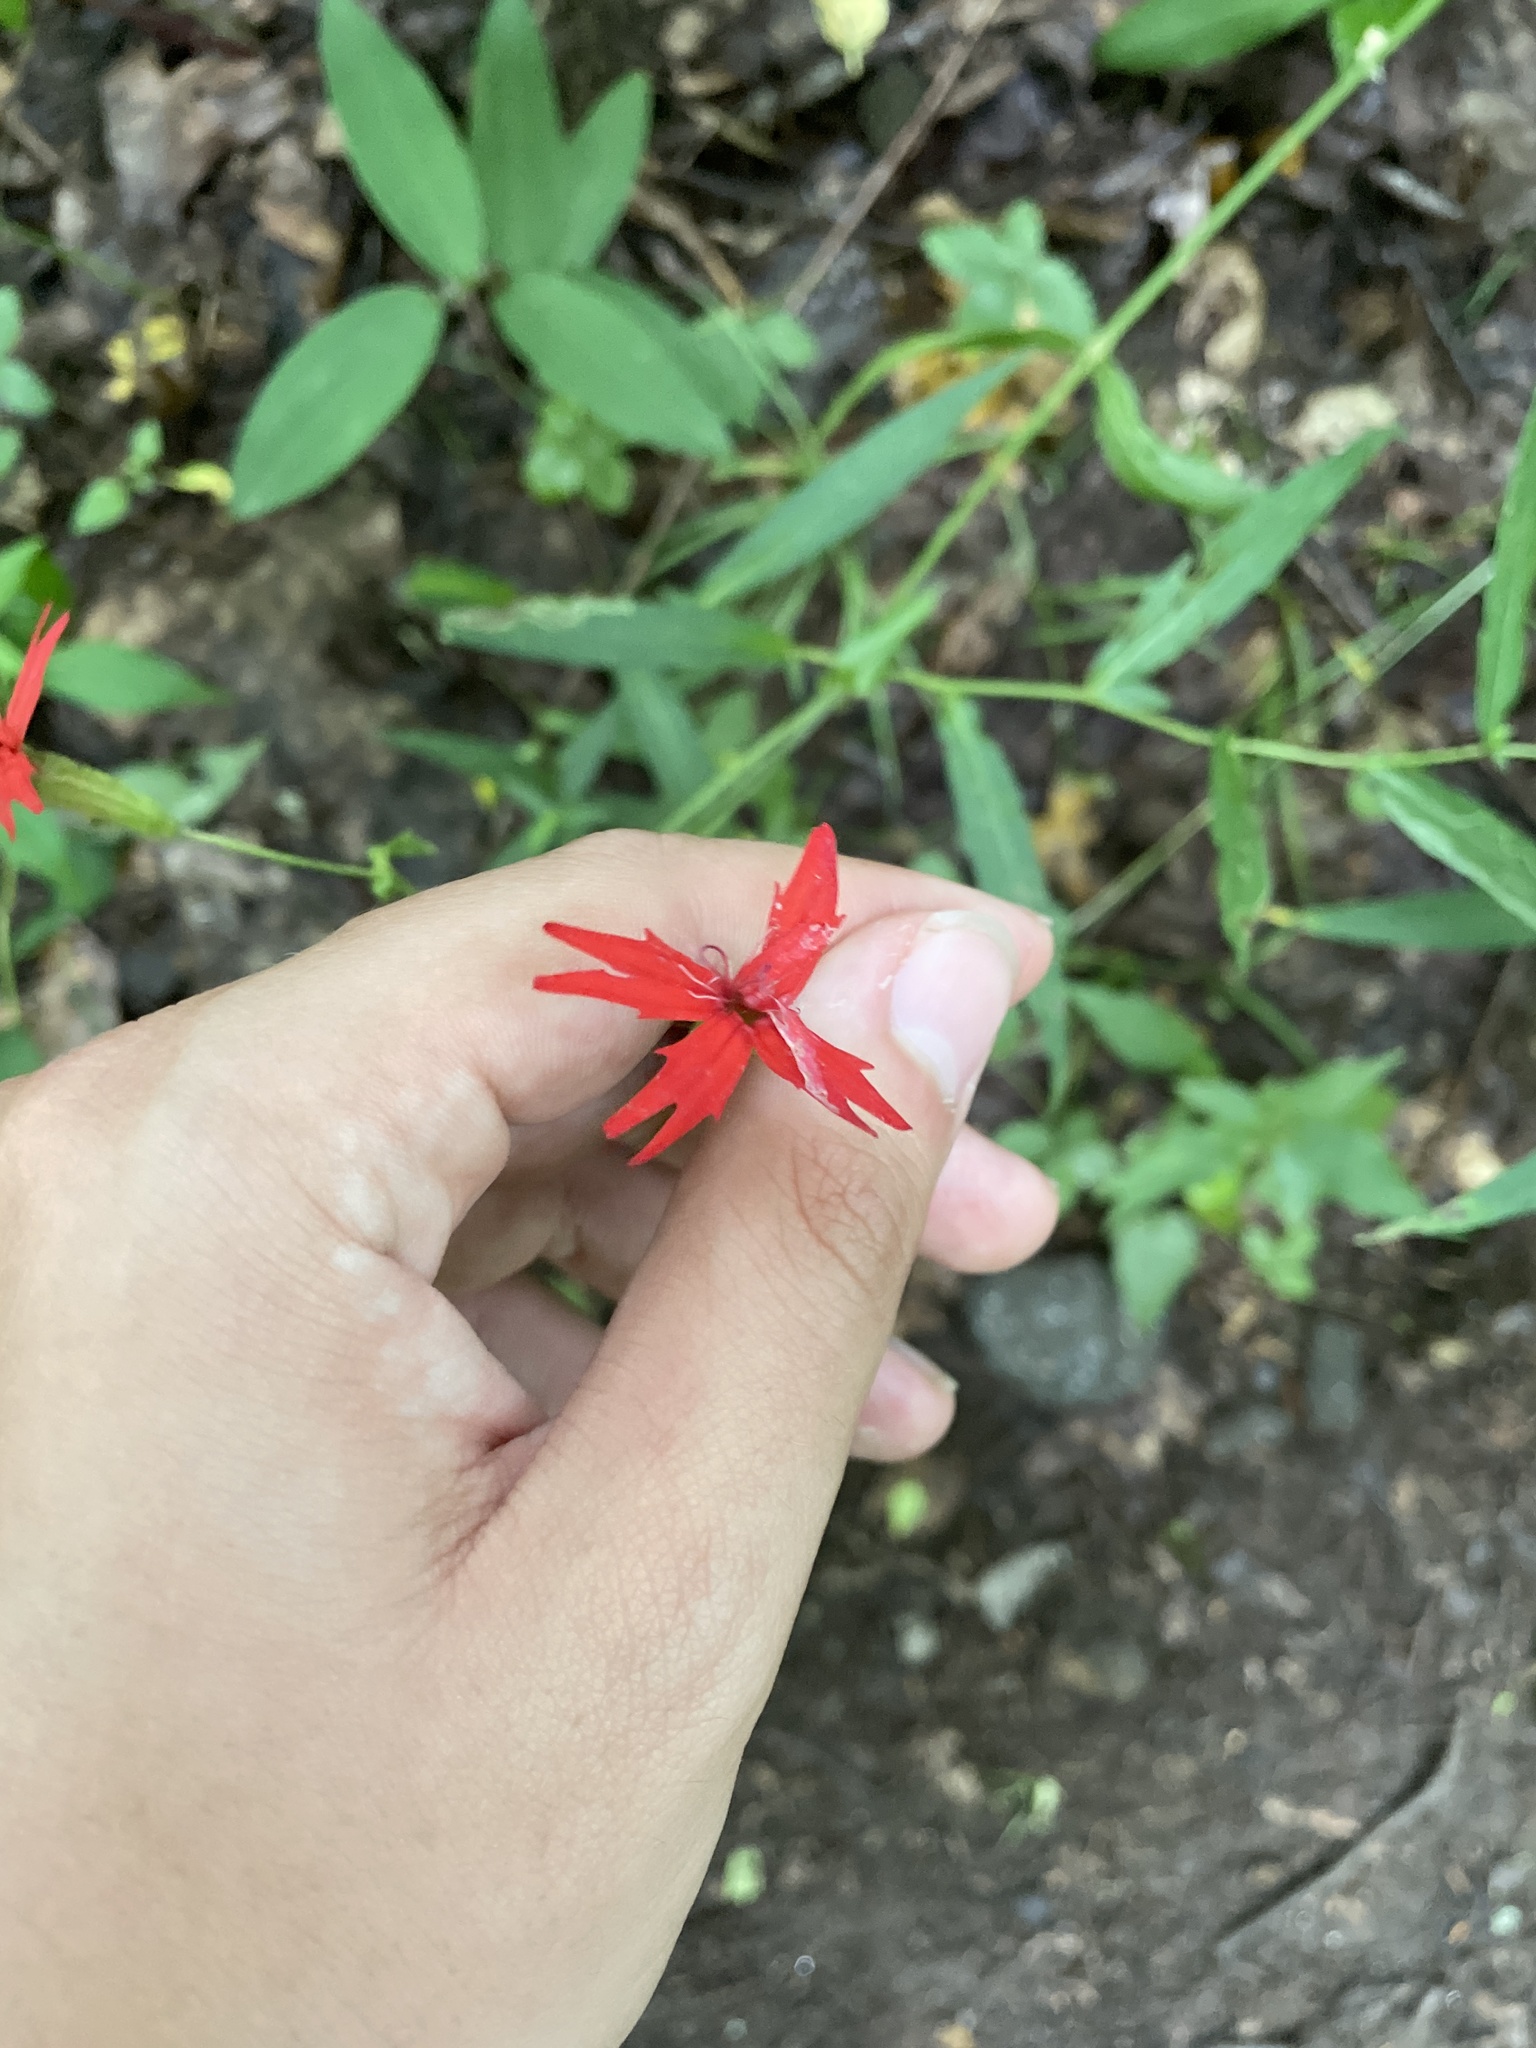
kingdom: Plantae
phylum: Tracheophyta
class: Magnoliopsida
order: Caryophyllales
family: Caryophyllaceae
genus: Silene
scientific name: Silene virginica
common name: Fire-pink
